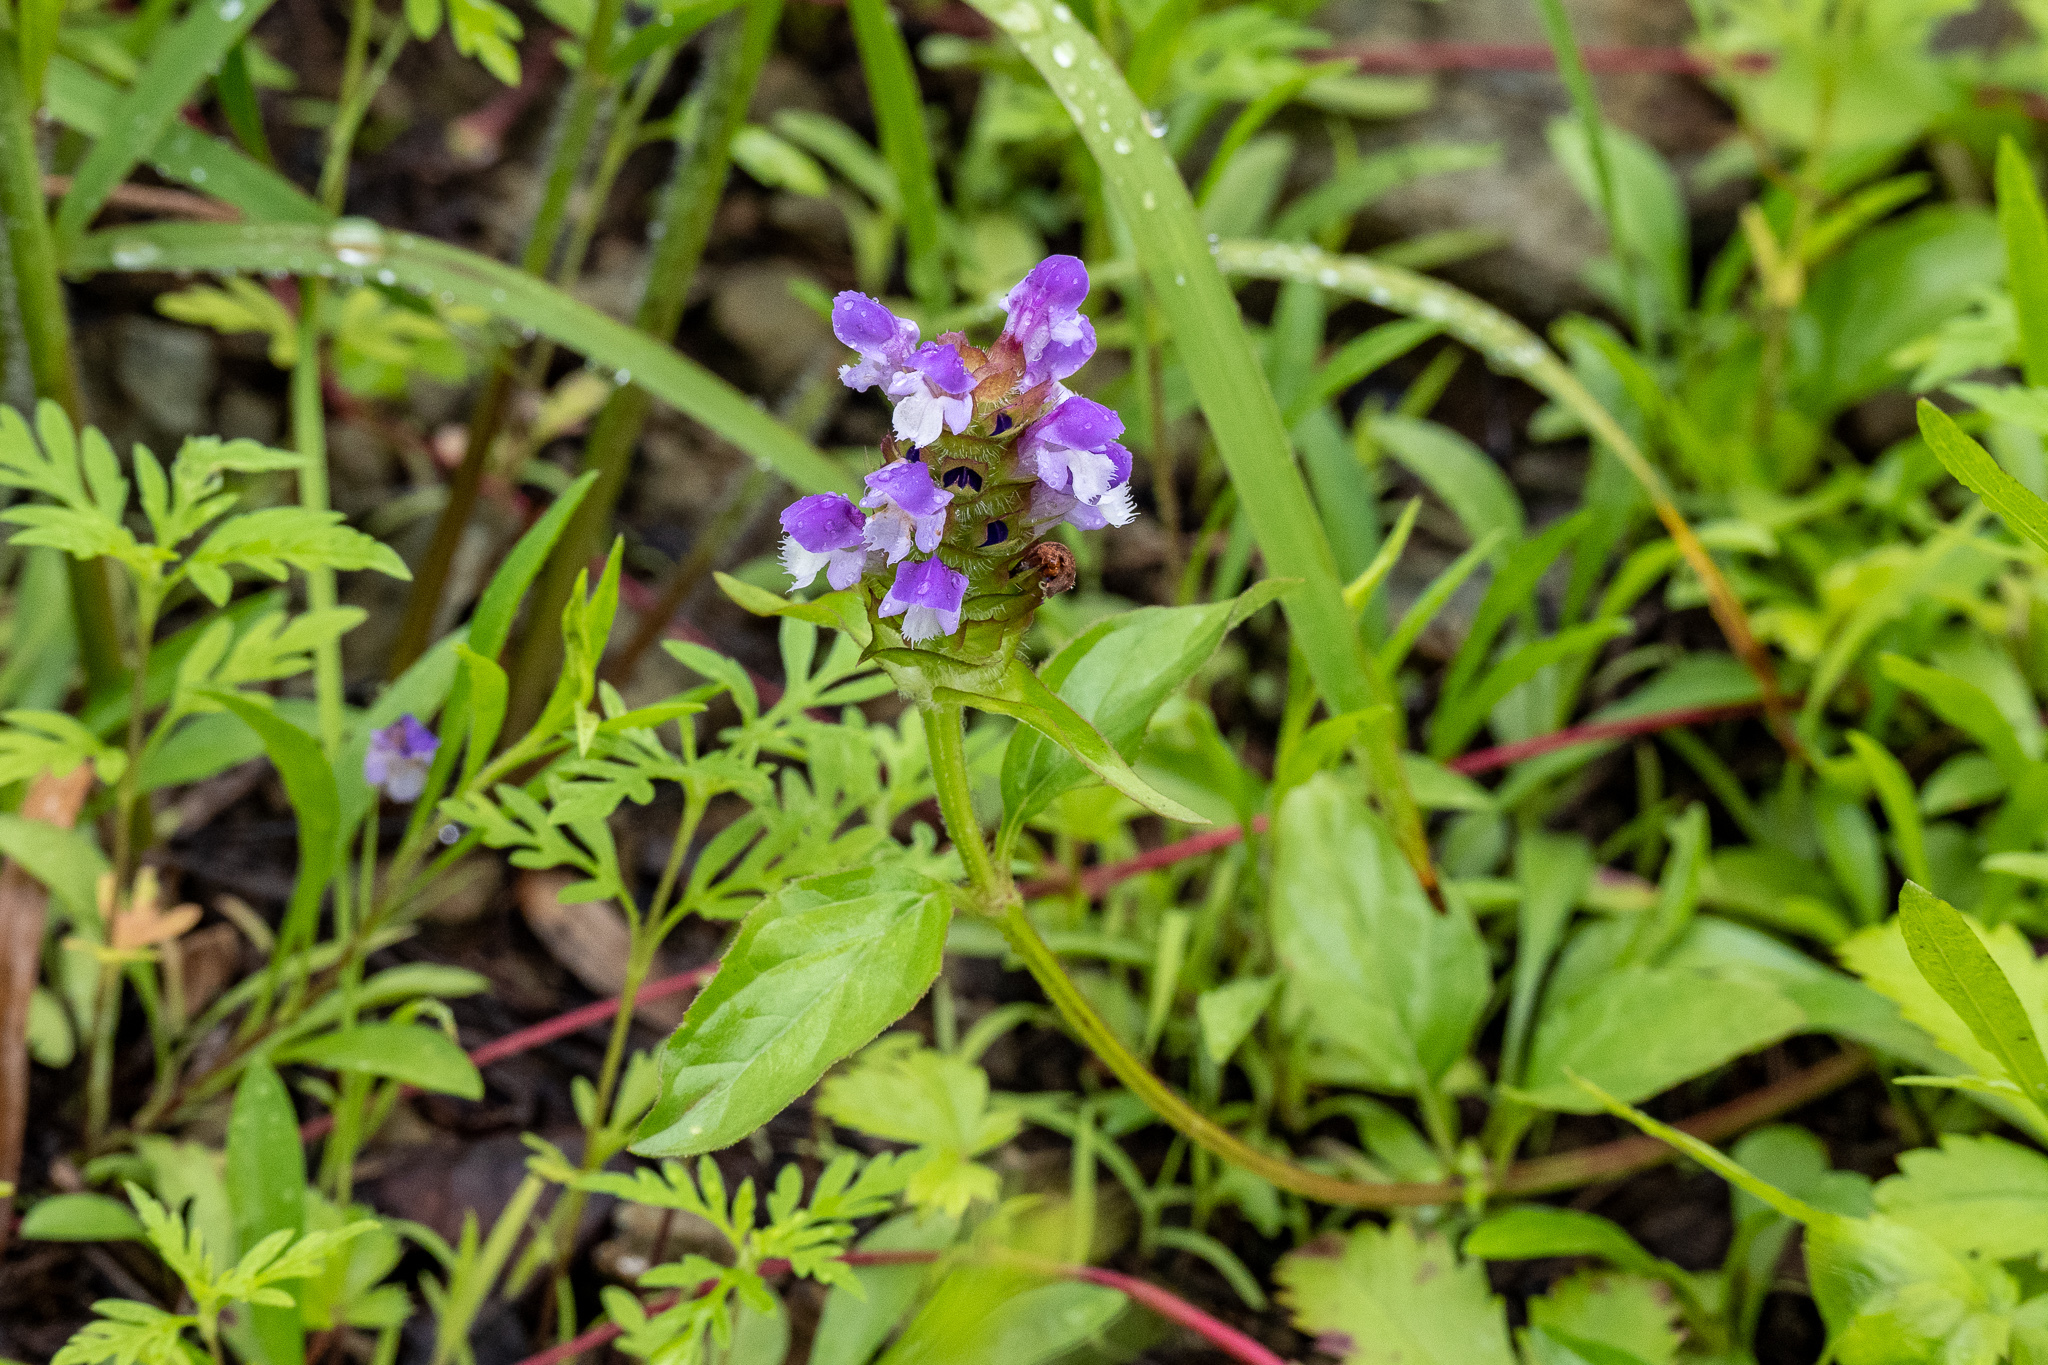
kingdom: Plantae
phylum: Tracheophyta
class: Magnoliopsida
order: Lamiales
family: Lamiaceae
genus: Prunella
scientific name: Prunella vulgaris
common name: Heal-all
